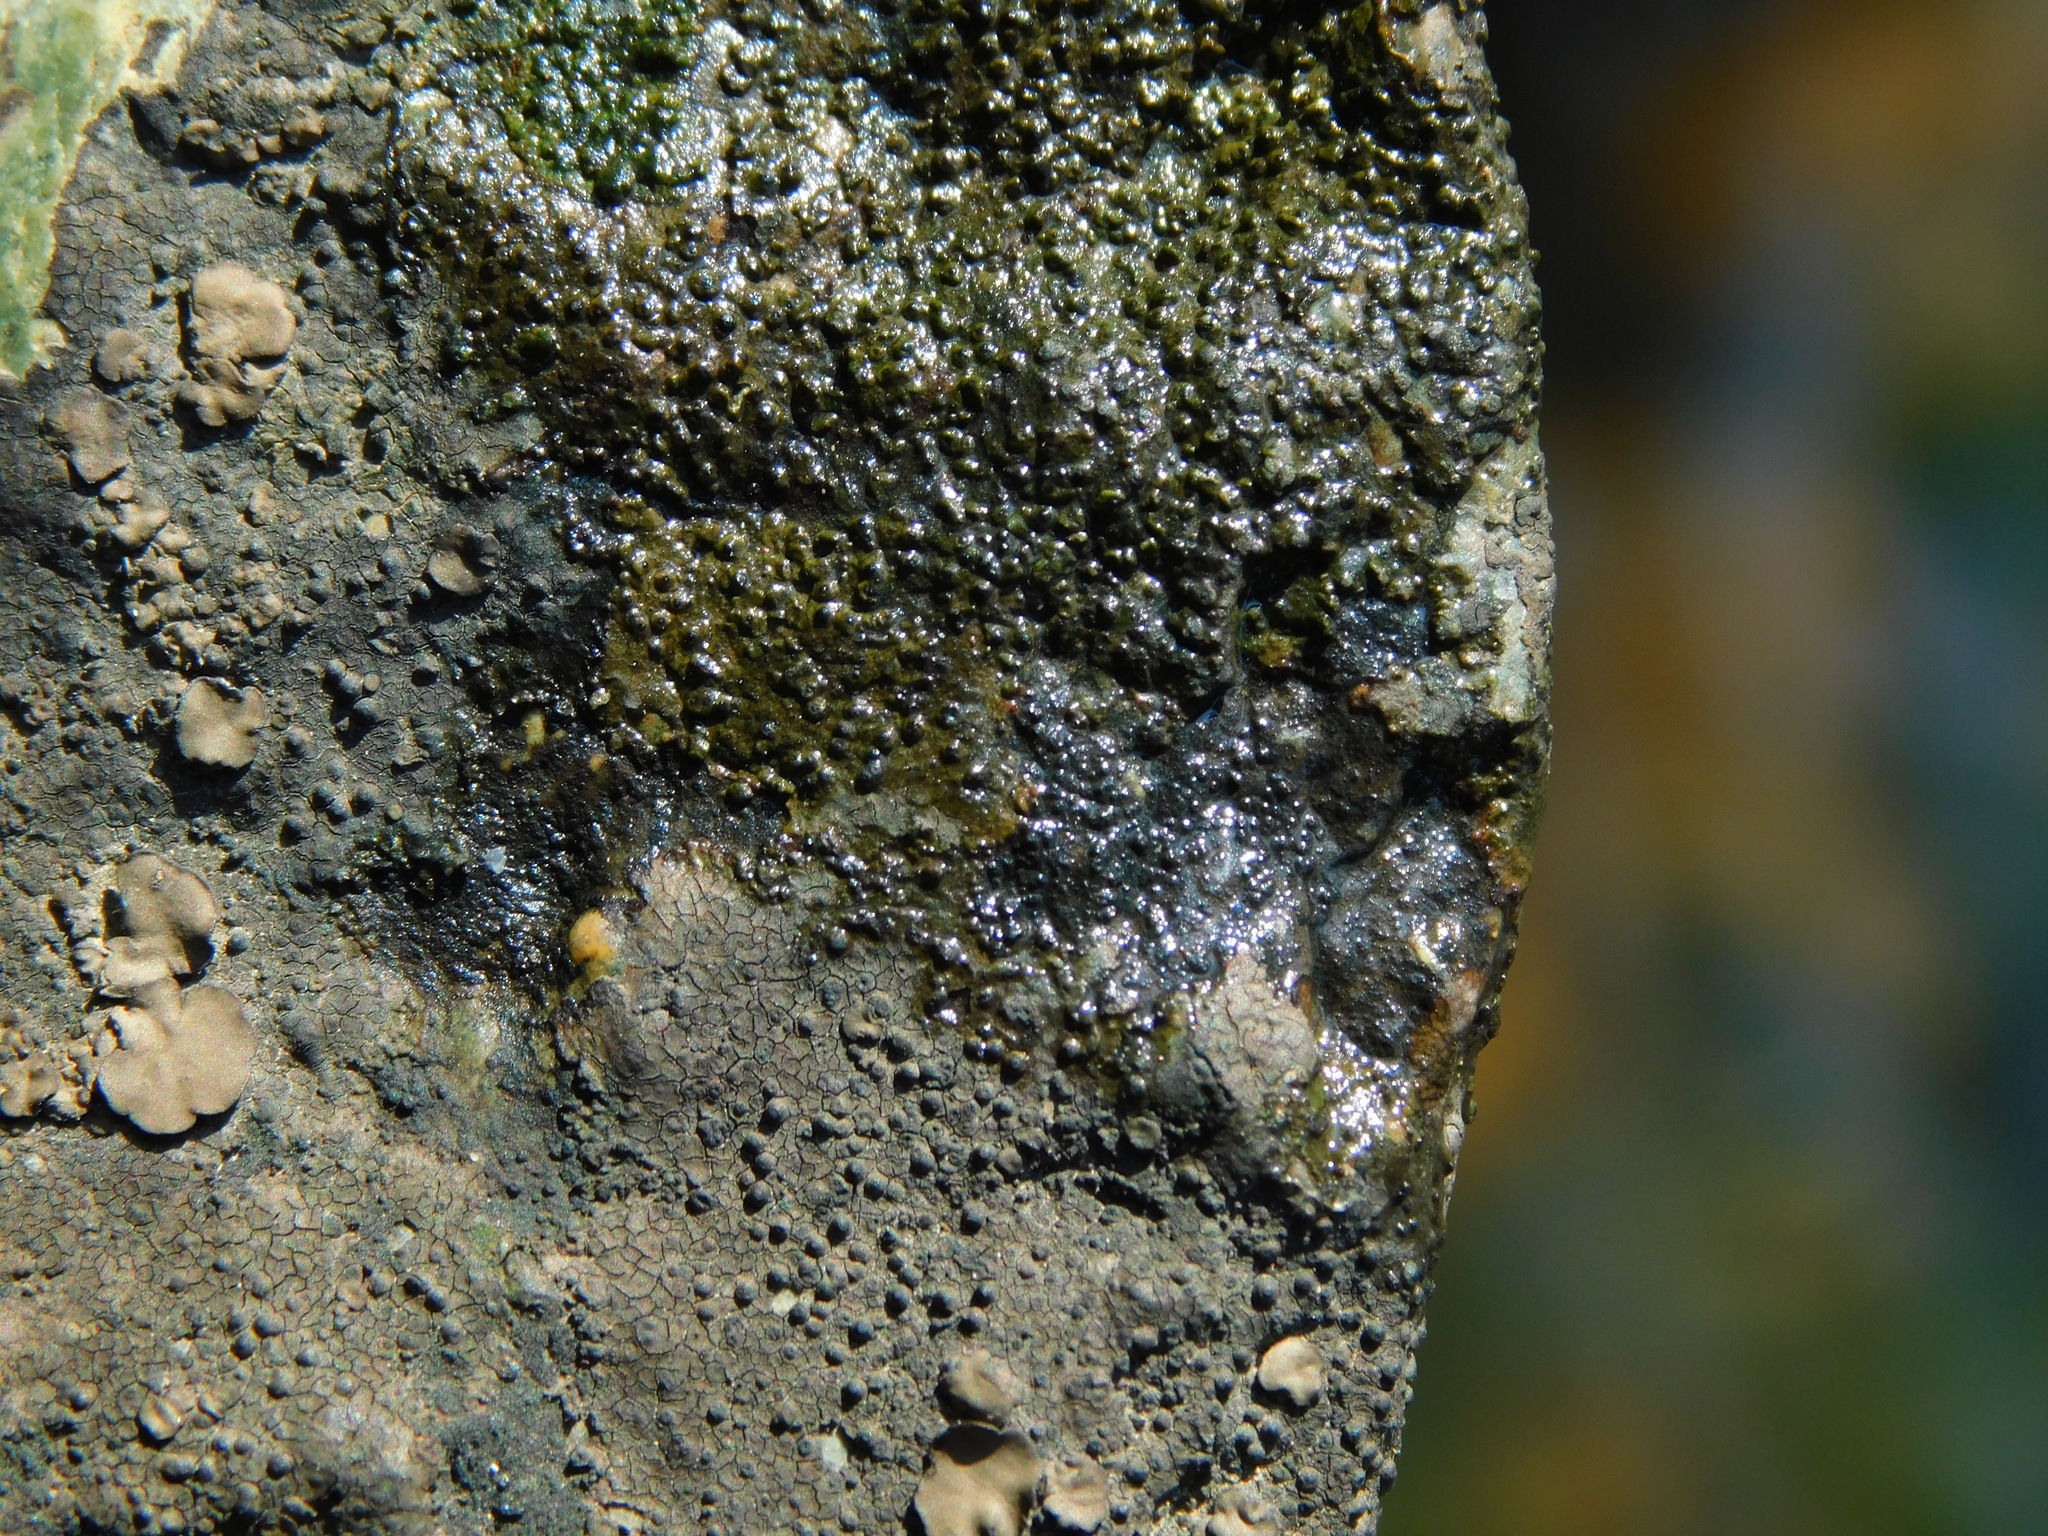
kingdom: Fungi
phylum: Ascomycota
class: Eurotiomycetes
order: Verrucariales
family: Verrucariaceae
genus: Staurothele
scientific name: Staurothele fissa
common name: Lakezone lichen
